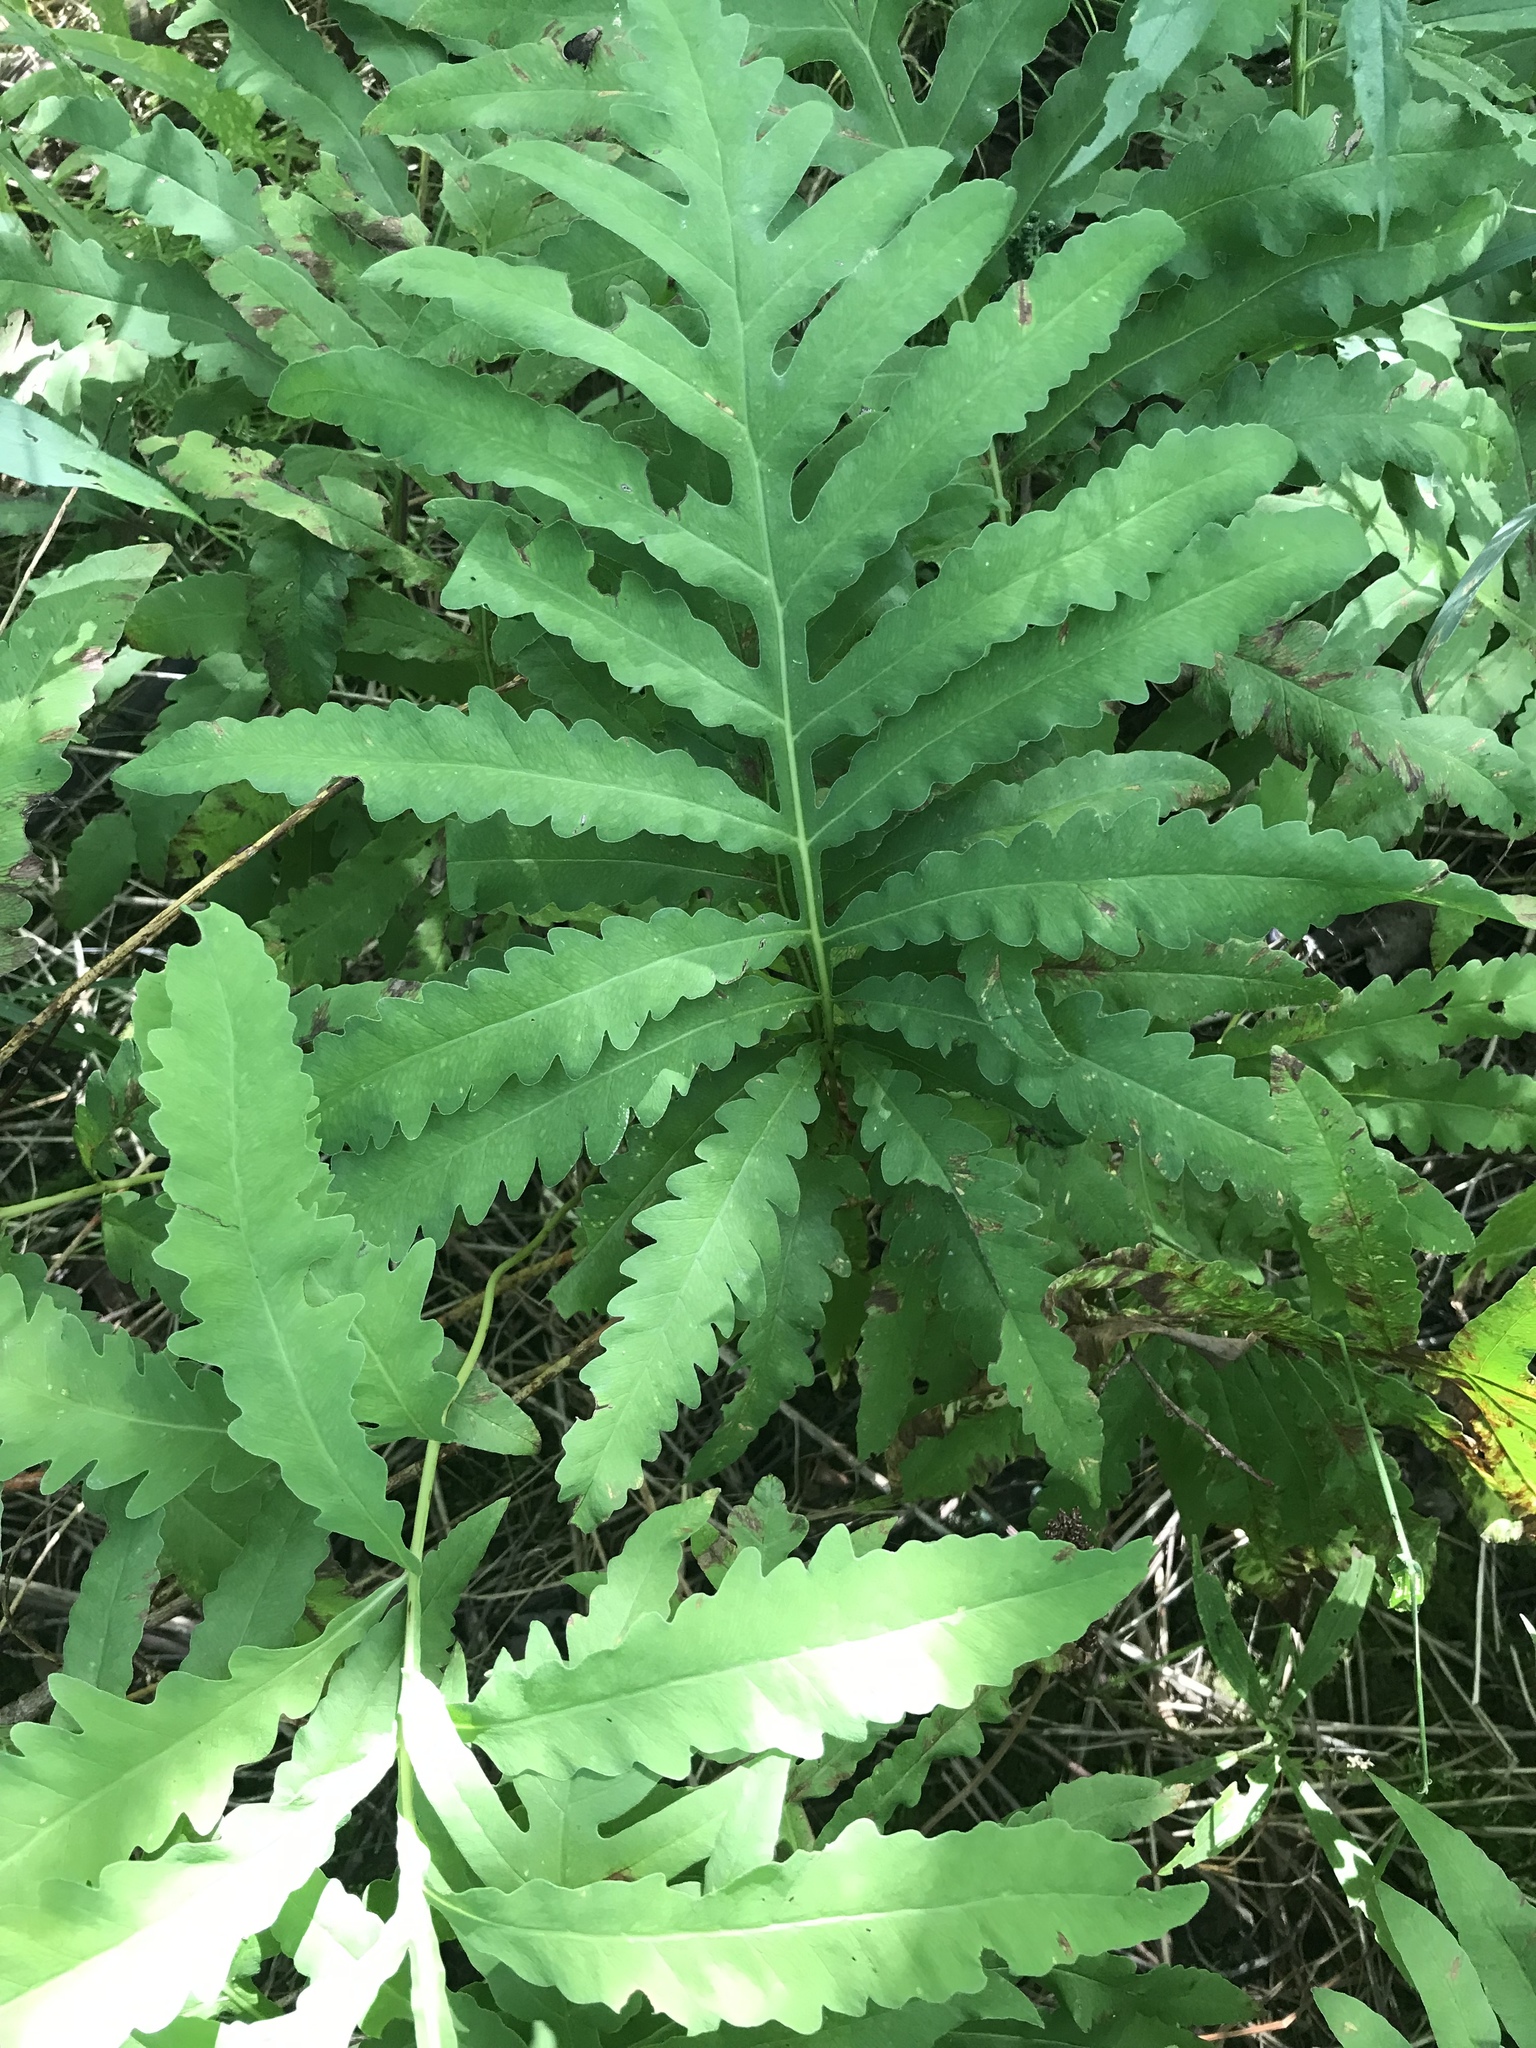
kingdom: Plantae
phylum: Tracheophyta
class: Polypodiopsida
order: Polypodiales
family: Onocleaceae
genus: Onoclea
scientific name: Onoclea sensibilis
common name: Sensitive fern
